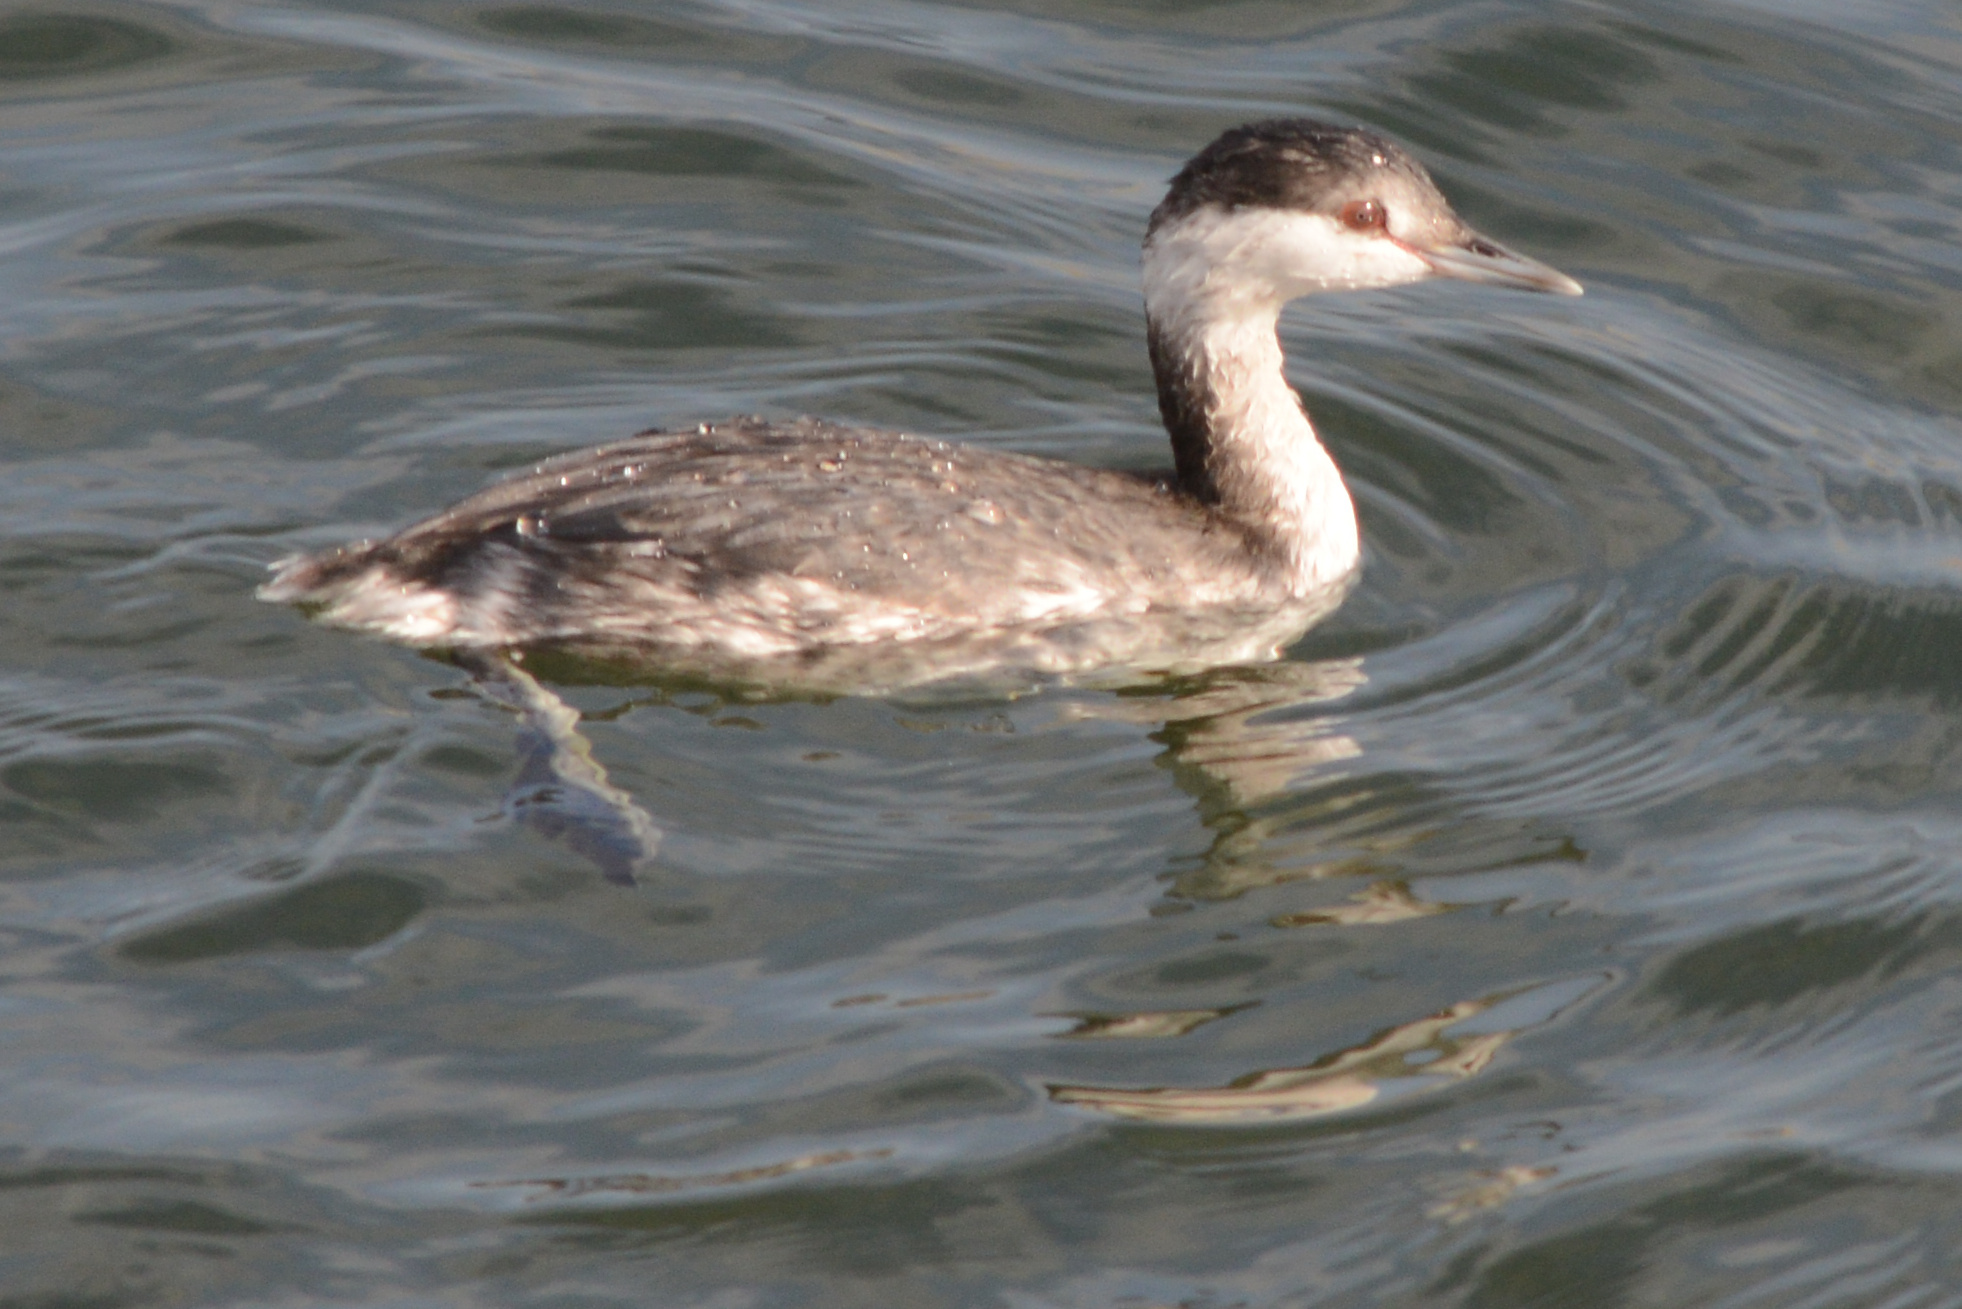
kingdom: Animalia
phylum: Chordata
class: Aves
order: Podicipediformes
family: Podicipedidae
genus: Podiceps
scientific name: Podiceps auritus
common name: Horned grebe
